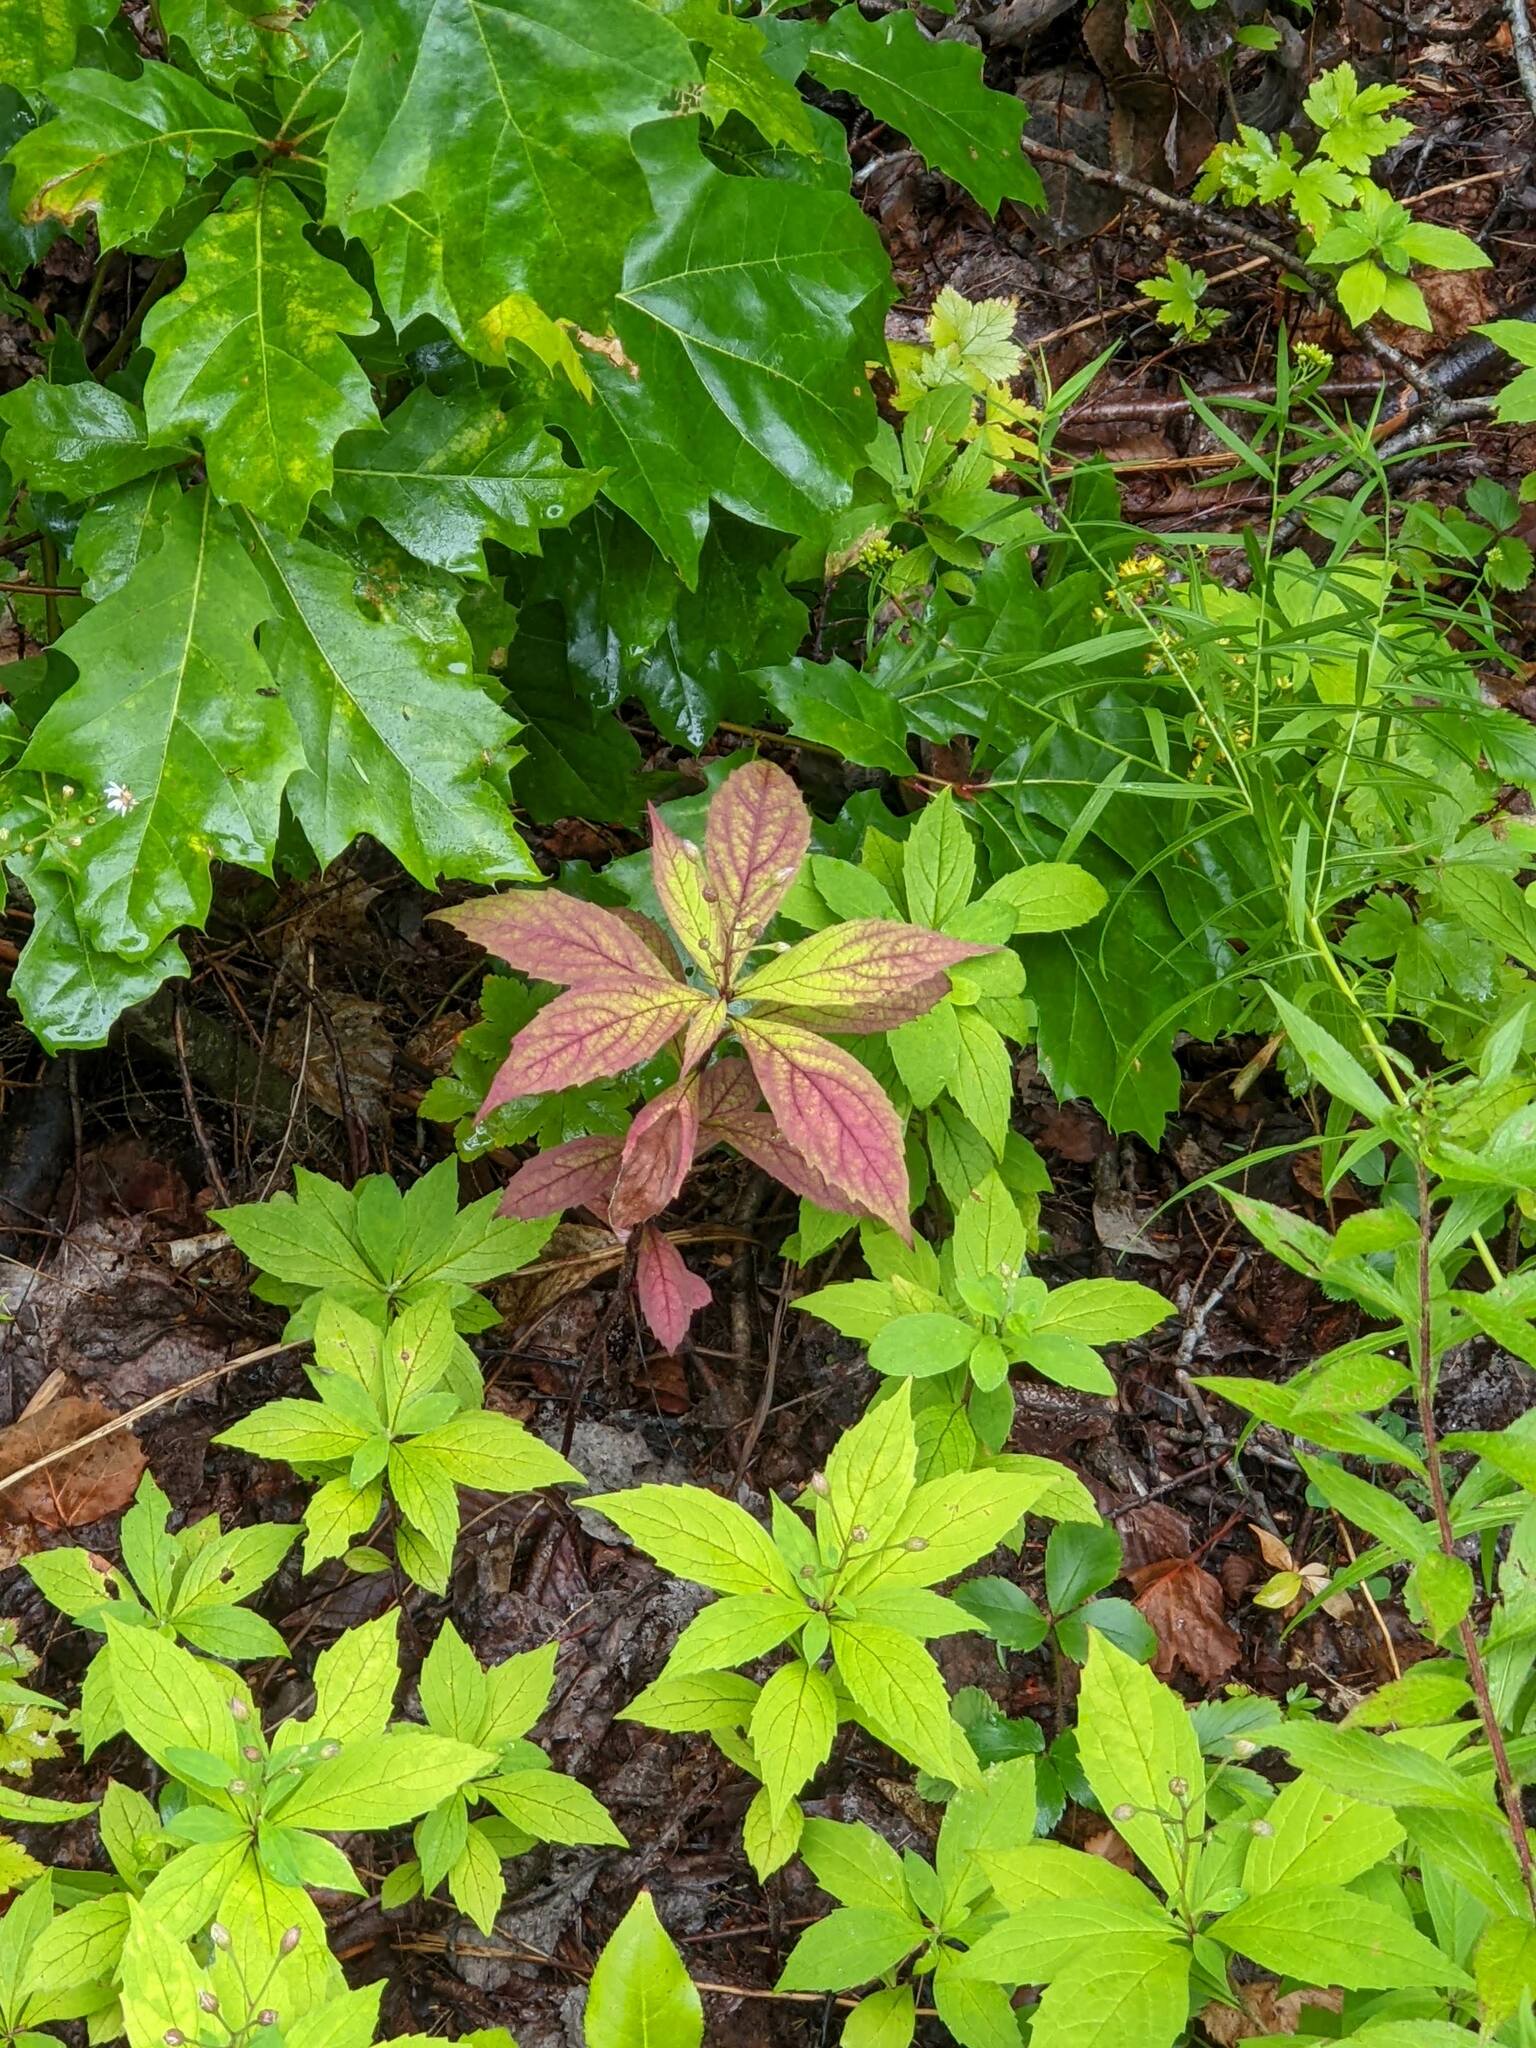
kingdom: Plantae
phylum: Tracheophyta
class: Magnoliopsida
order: Asterales
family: Asteraceae
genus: Oclemena
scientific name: Oclemena acuminata
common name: Mountain aster
